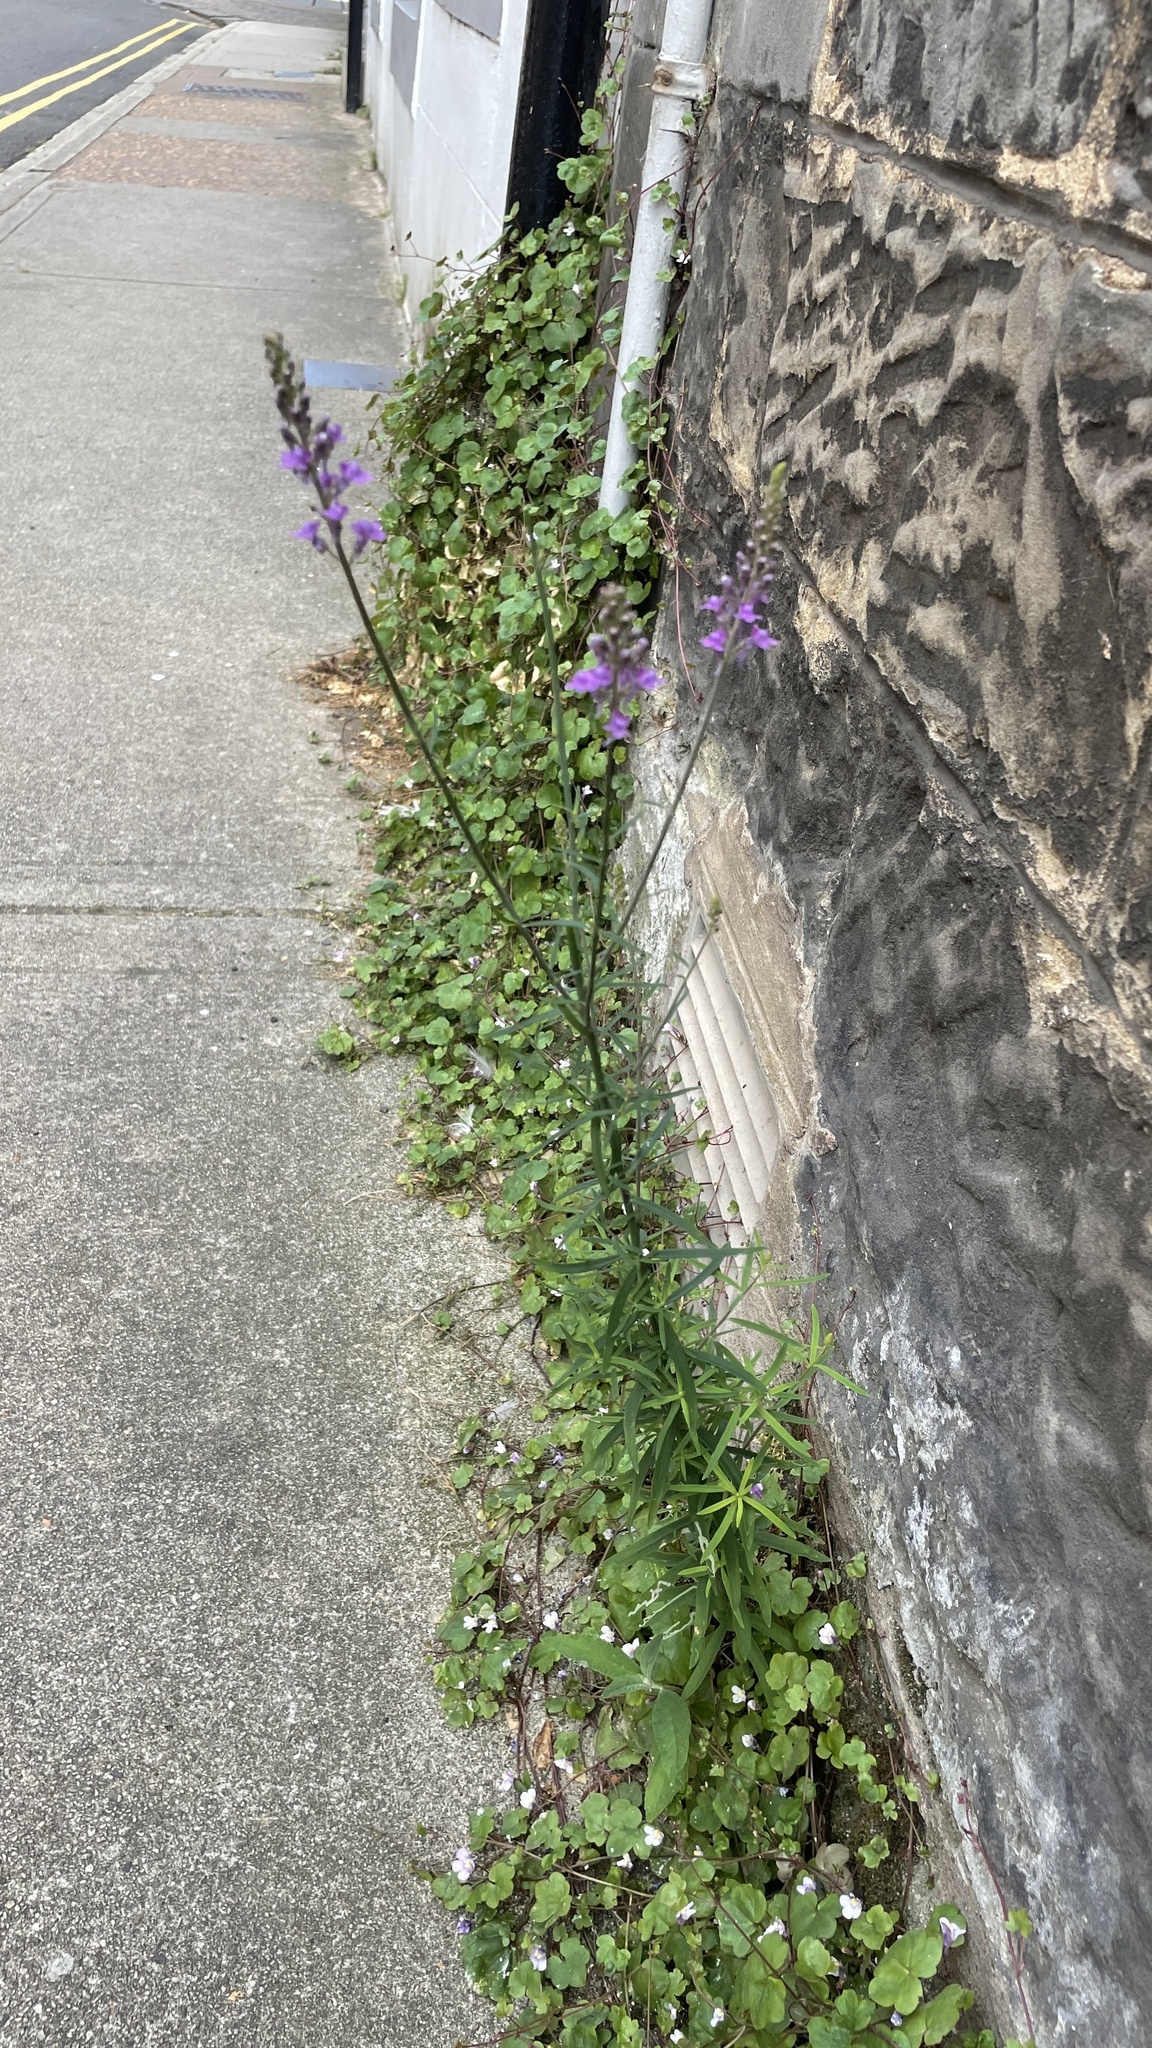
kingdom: Plantae
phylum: Tracheophyta
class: Magnoliopsida
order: Lamiales
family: Plantaginaceae
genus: Linaria
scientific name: Linaria purpurea
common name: Purple toadflax
